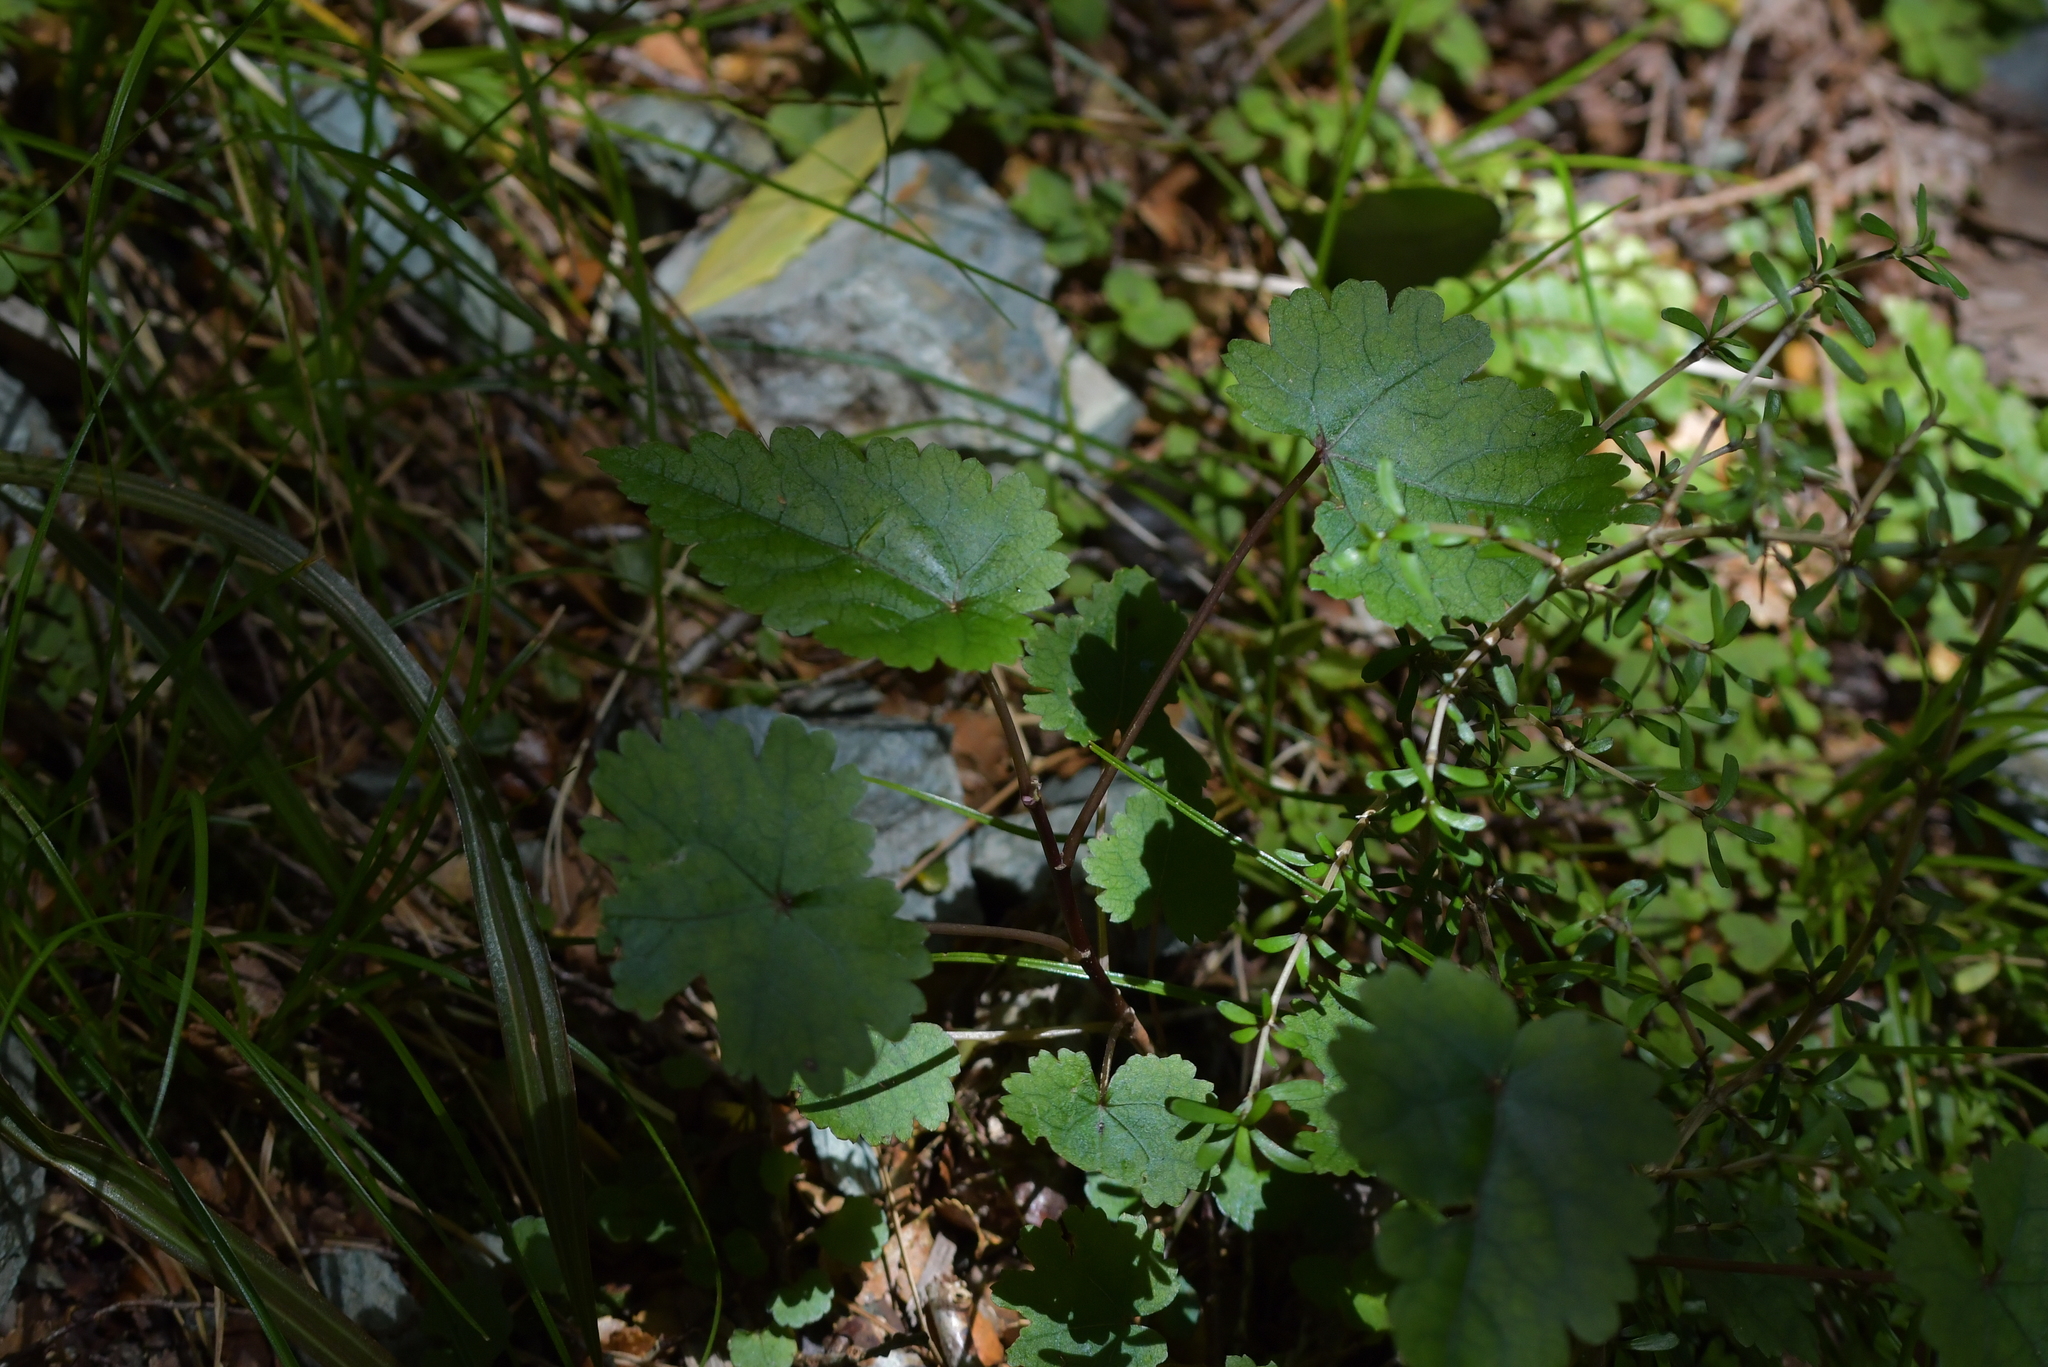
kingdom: Plantae
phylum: Tracheophyta
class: Magnoliopsida
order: Malvales
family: Malvaceae
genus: Hoheria
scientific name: Hoheria glabrata
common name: Mountain-ribbon
